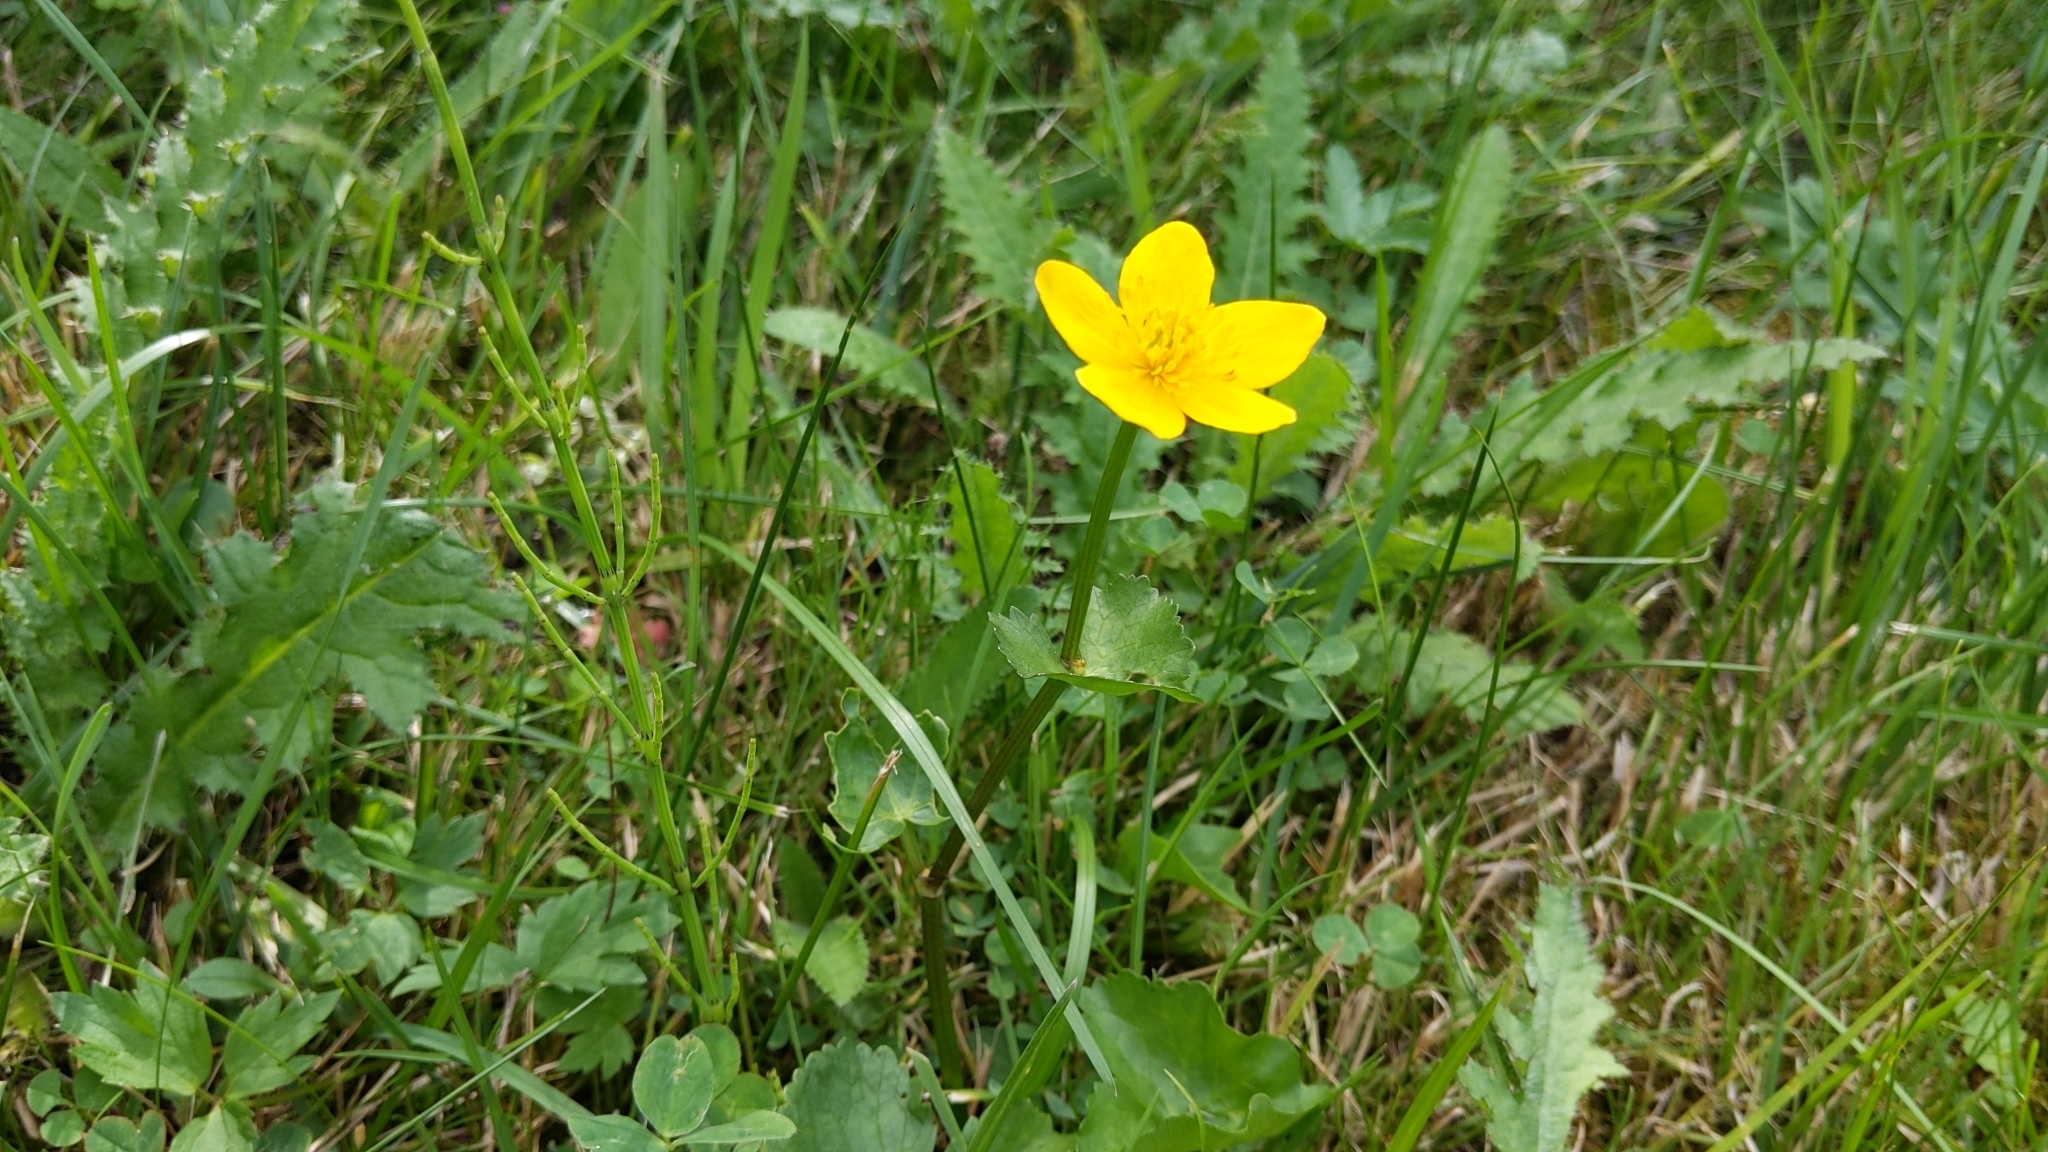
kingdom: Plantae
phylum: Tracheophyta
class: Magnoliopsida
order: Ranunculales
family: Ranunculaceae
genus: Caltha
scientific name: Caltha palustris
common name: Marsh marigold
